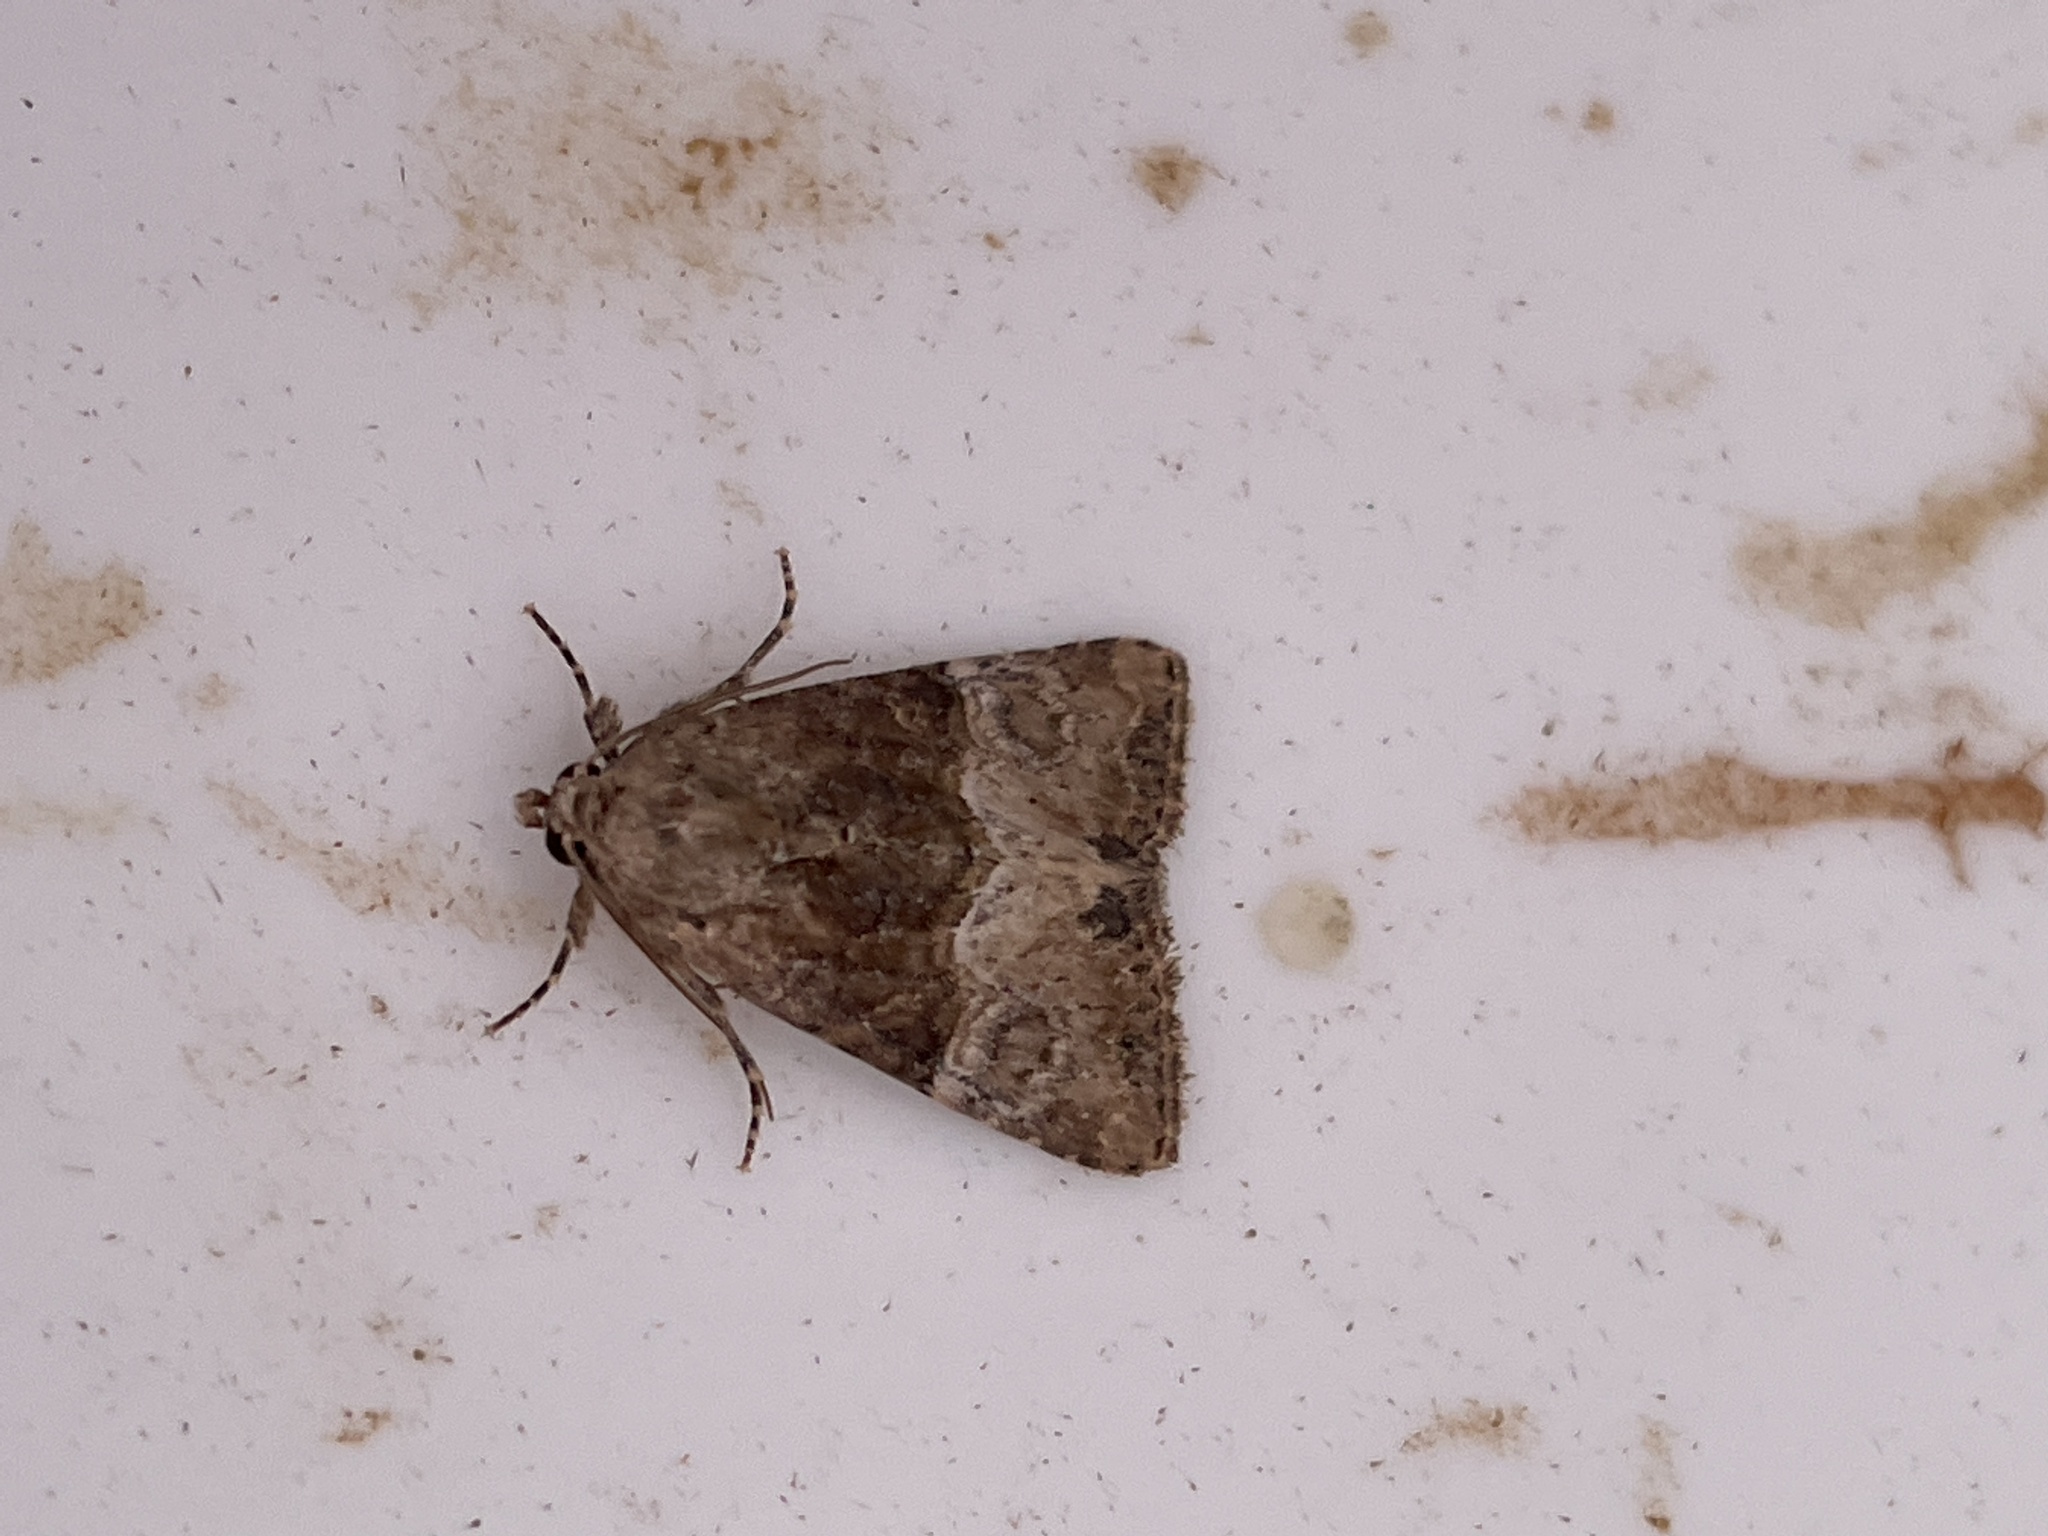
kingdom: Animalia
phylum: Arthropoda
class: Insecta
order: Lepidoptera
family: Noctuidae
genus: Mesoligia
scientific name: Mesoligia furuncula
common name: Cloaked minor
